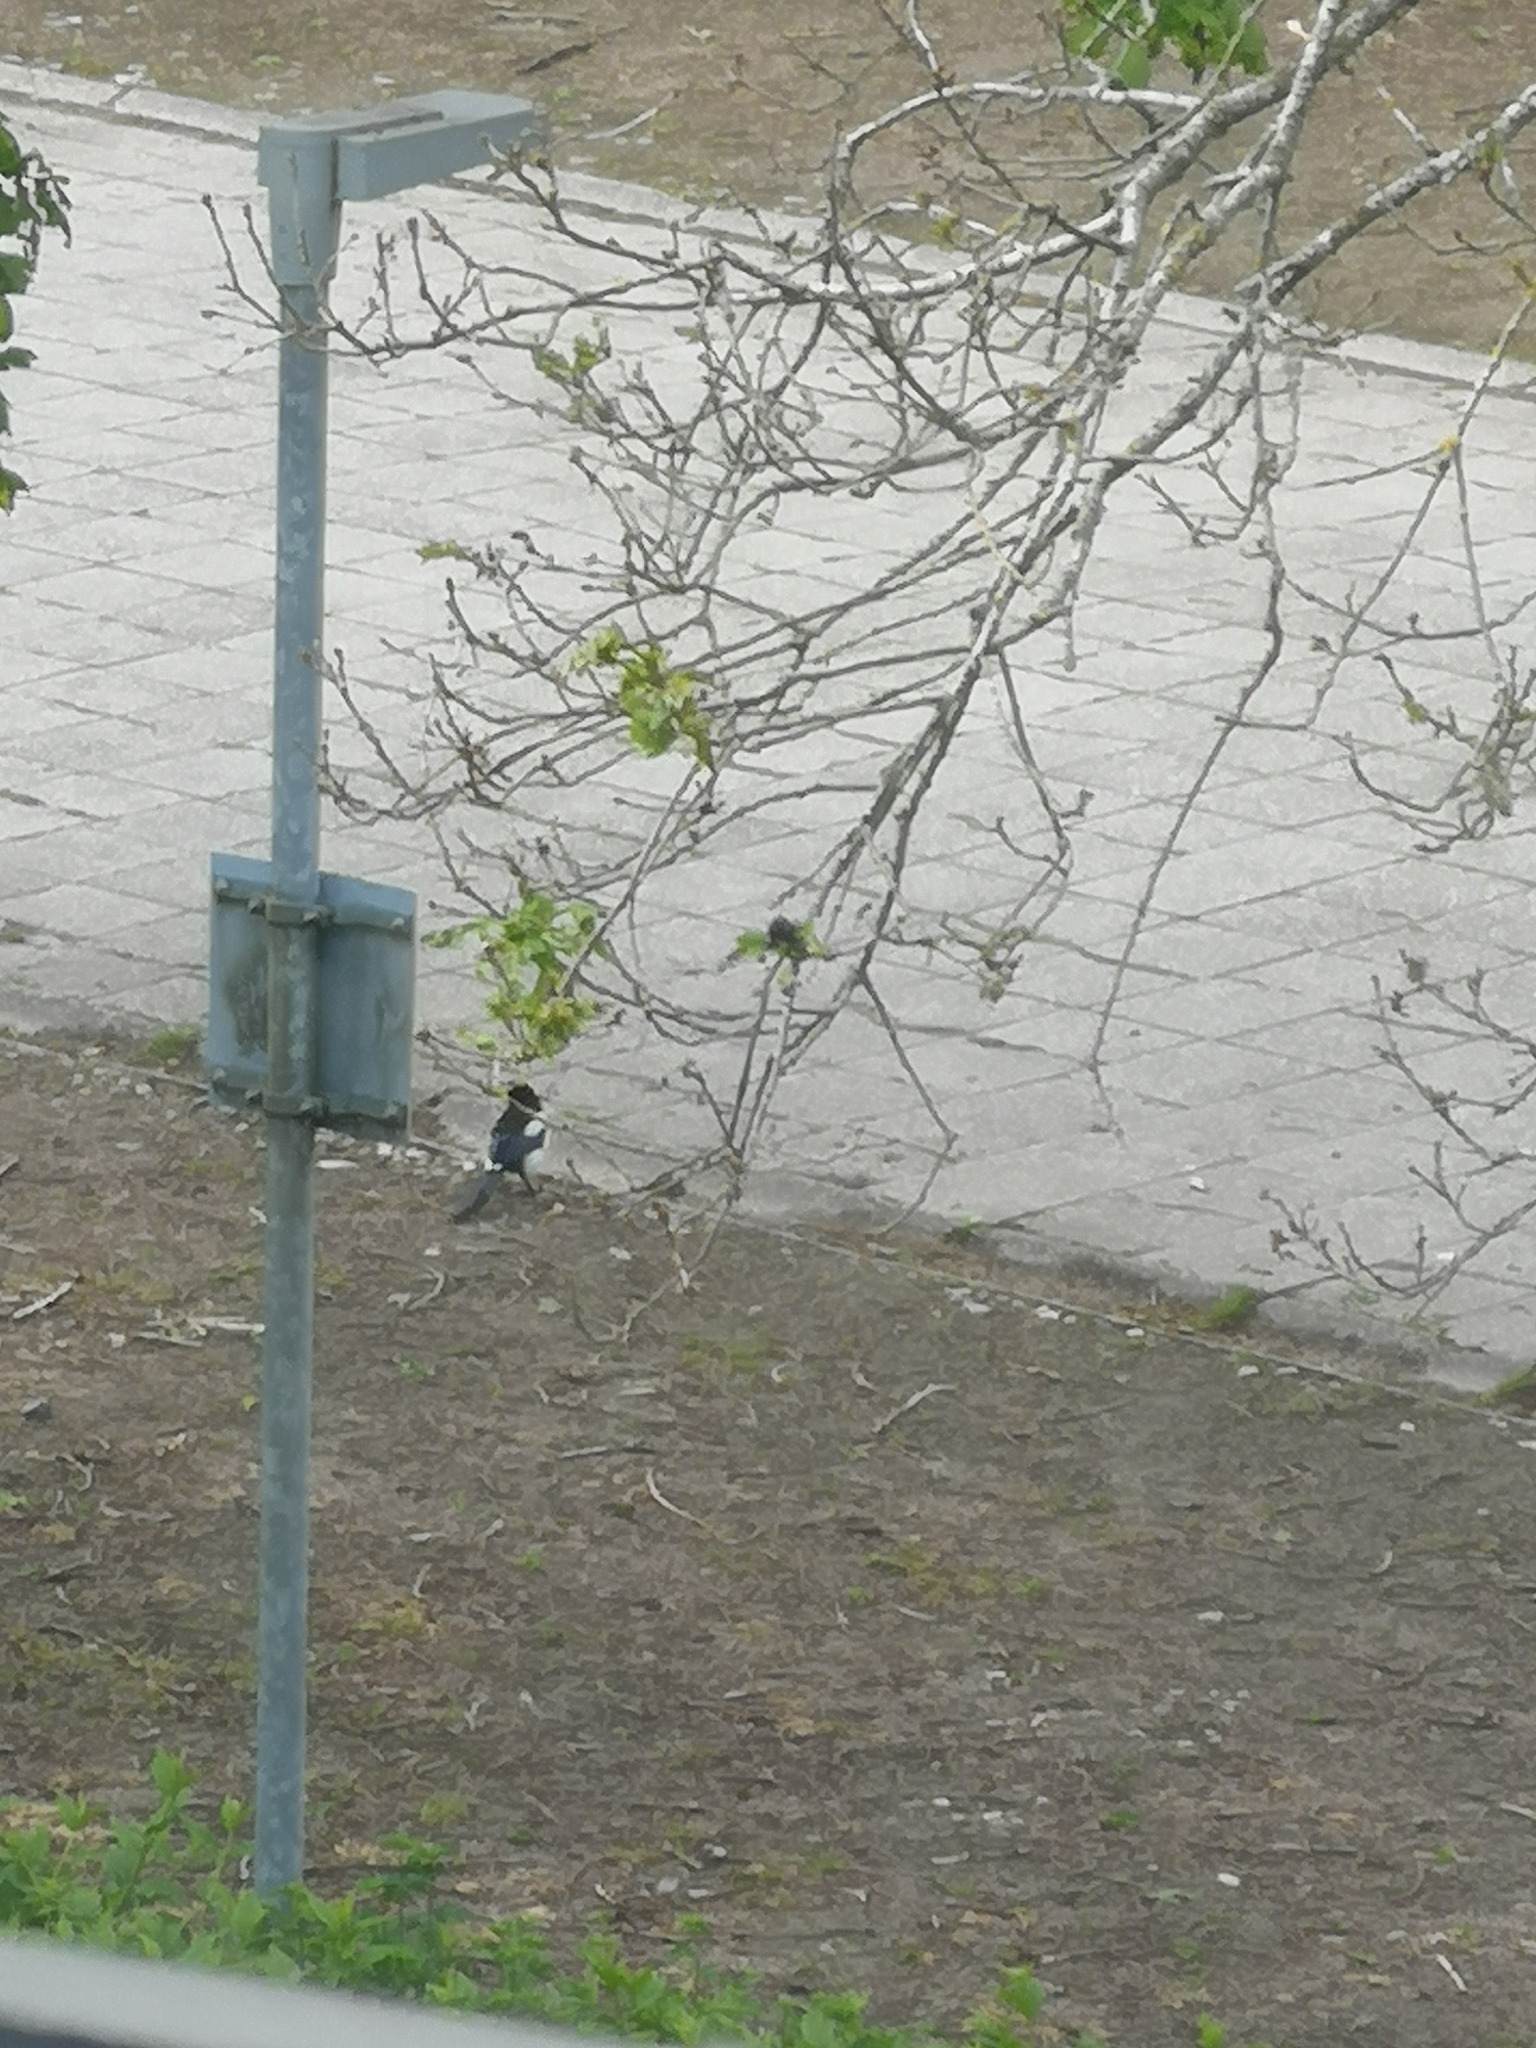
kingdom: Animalia
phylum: Chordata
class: Aves
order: Passeriformes
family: Corvidae
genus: Pica
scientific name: Pica pica
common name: Eurasian magpie
